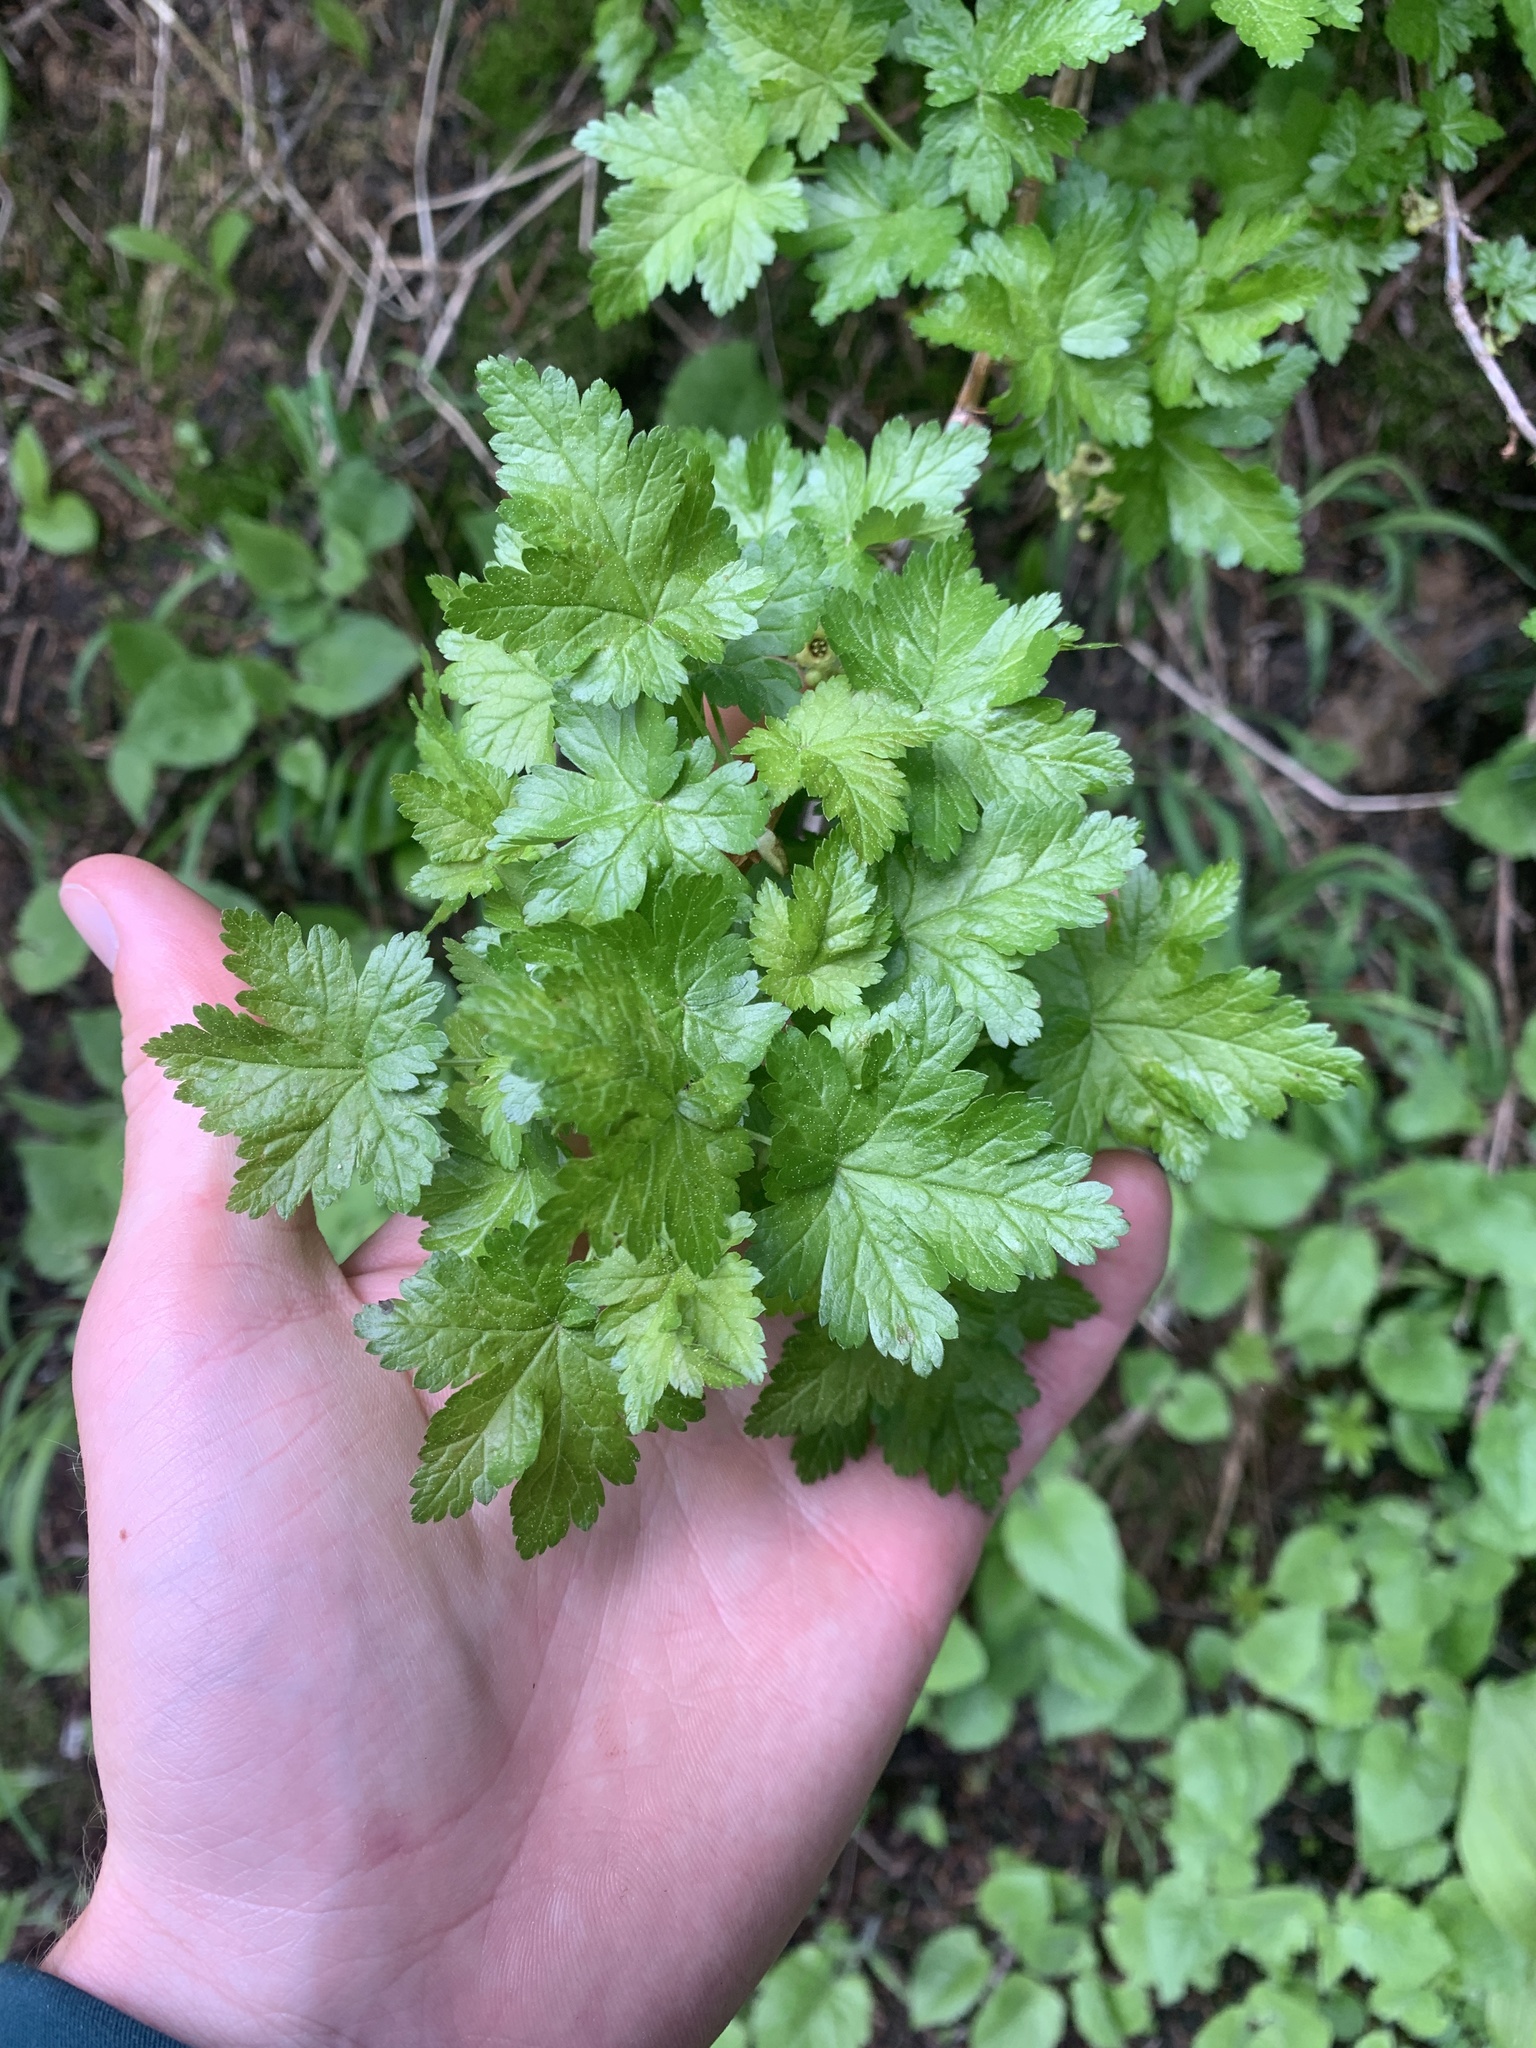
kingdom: Plantae
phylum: Tracheophyta
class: Magnoliopsida
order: Saxifragales
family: Grossulariaceae
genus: Ribes
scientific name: Ribes lacustre
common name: Black gooseberry
